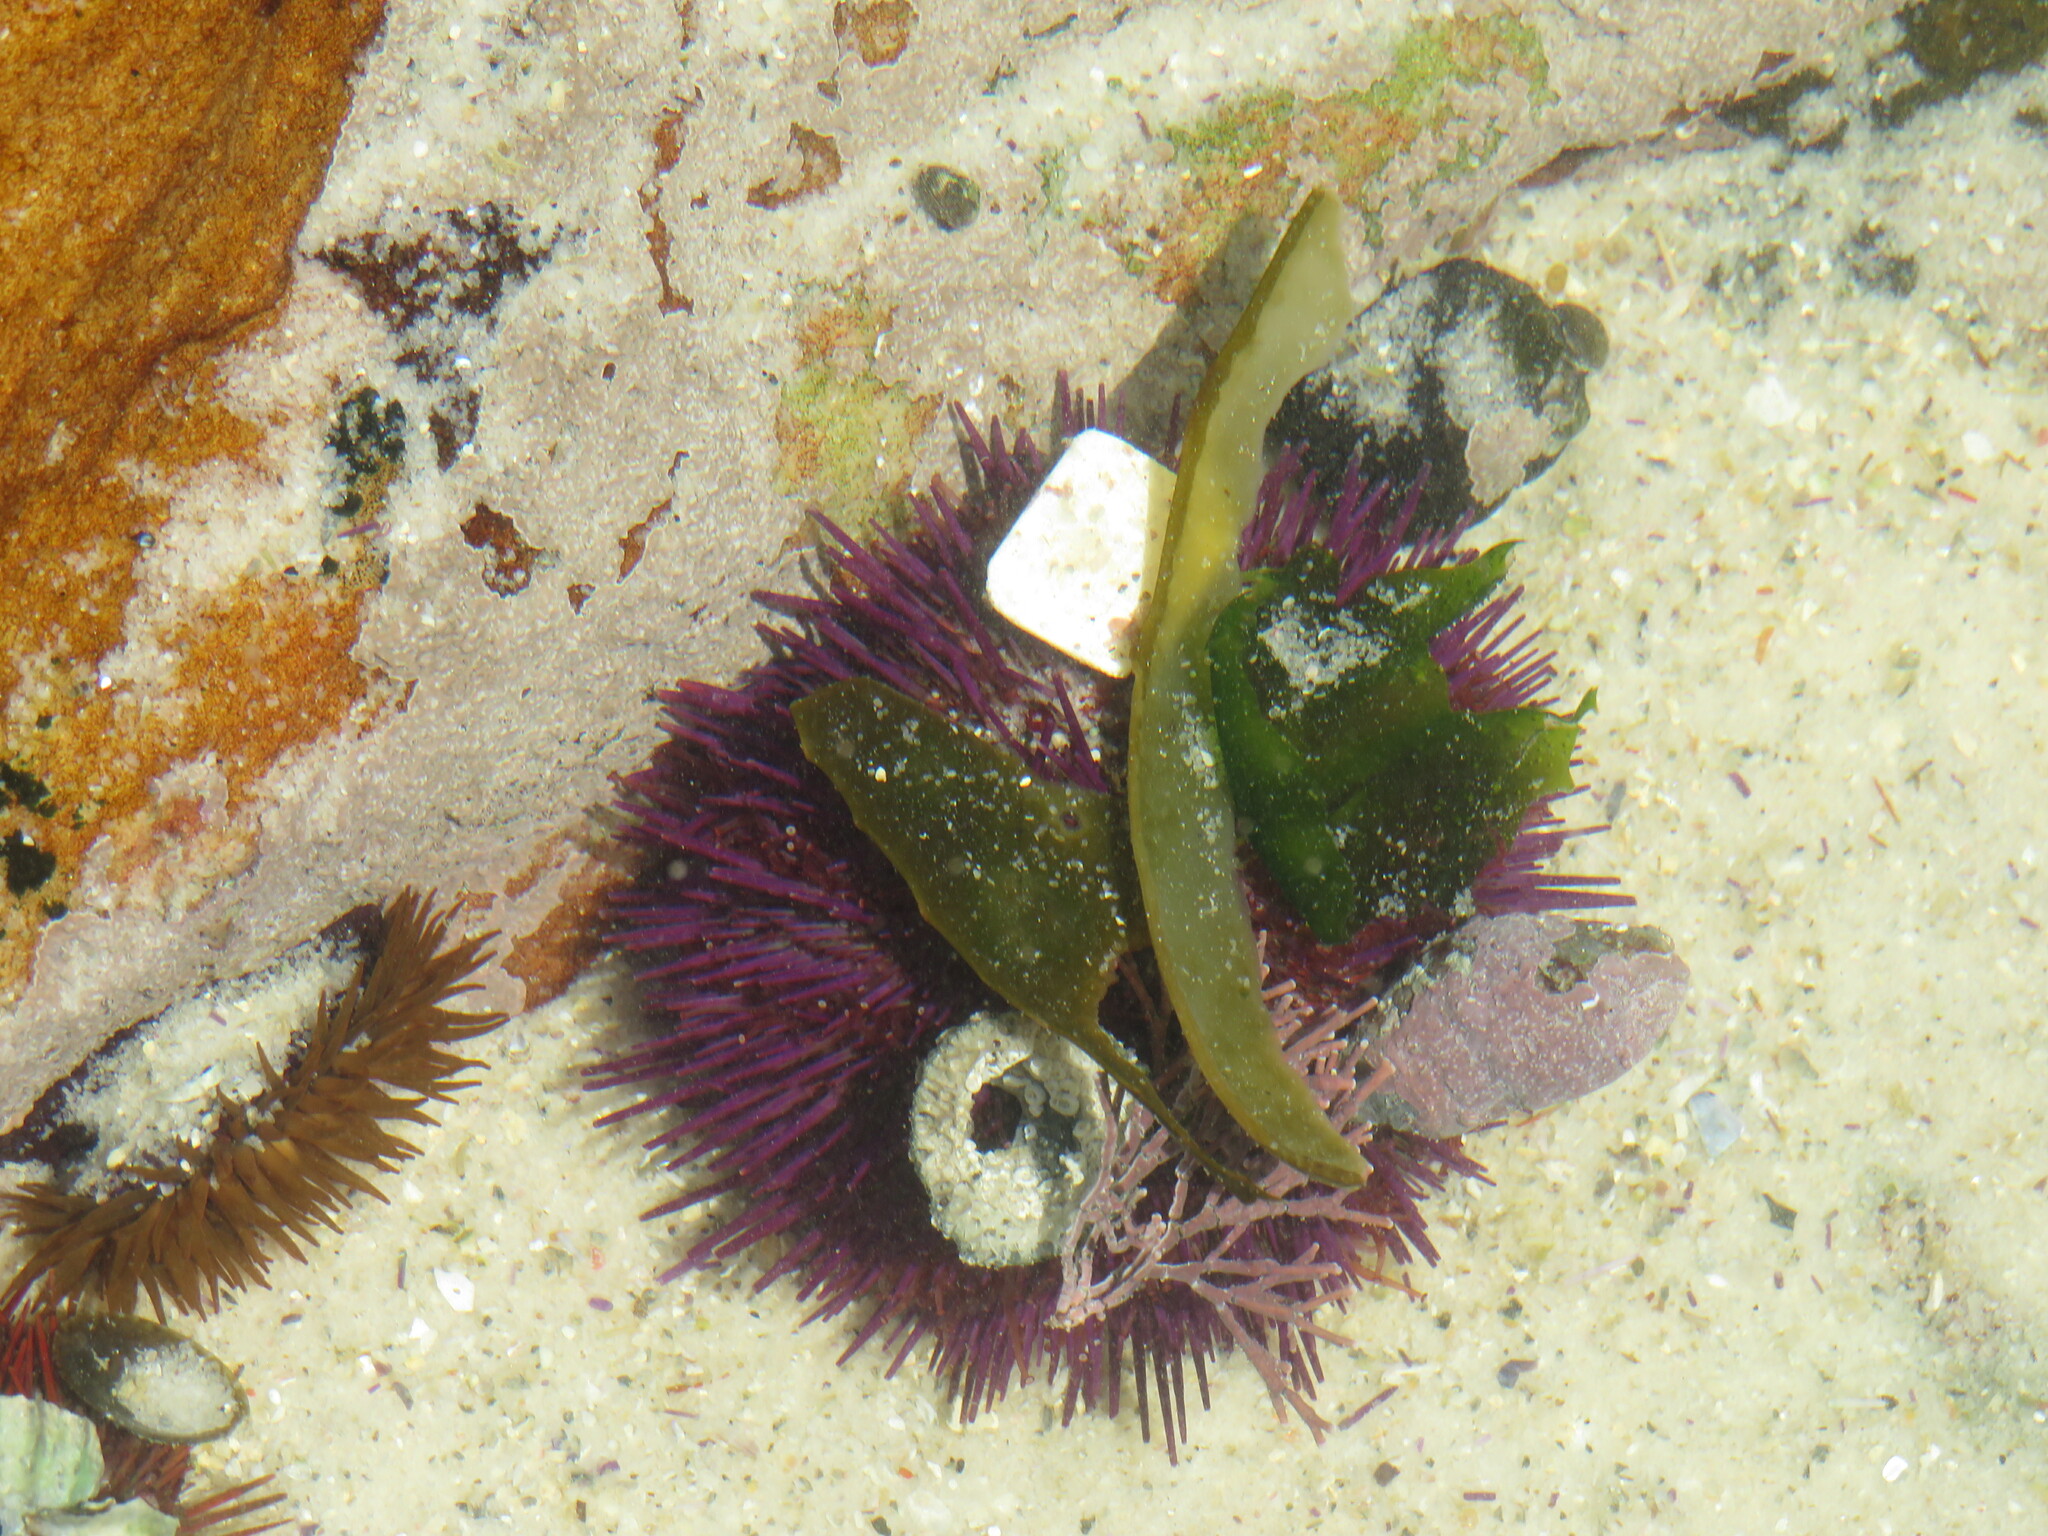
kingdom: Animalia
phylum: Echinodermata
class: Echinoidea
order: Camarodonta
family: Parechinidae
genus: Parechinus
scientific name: Parechinus angulosus
